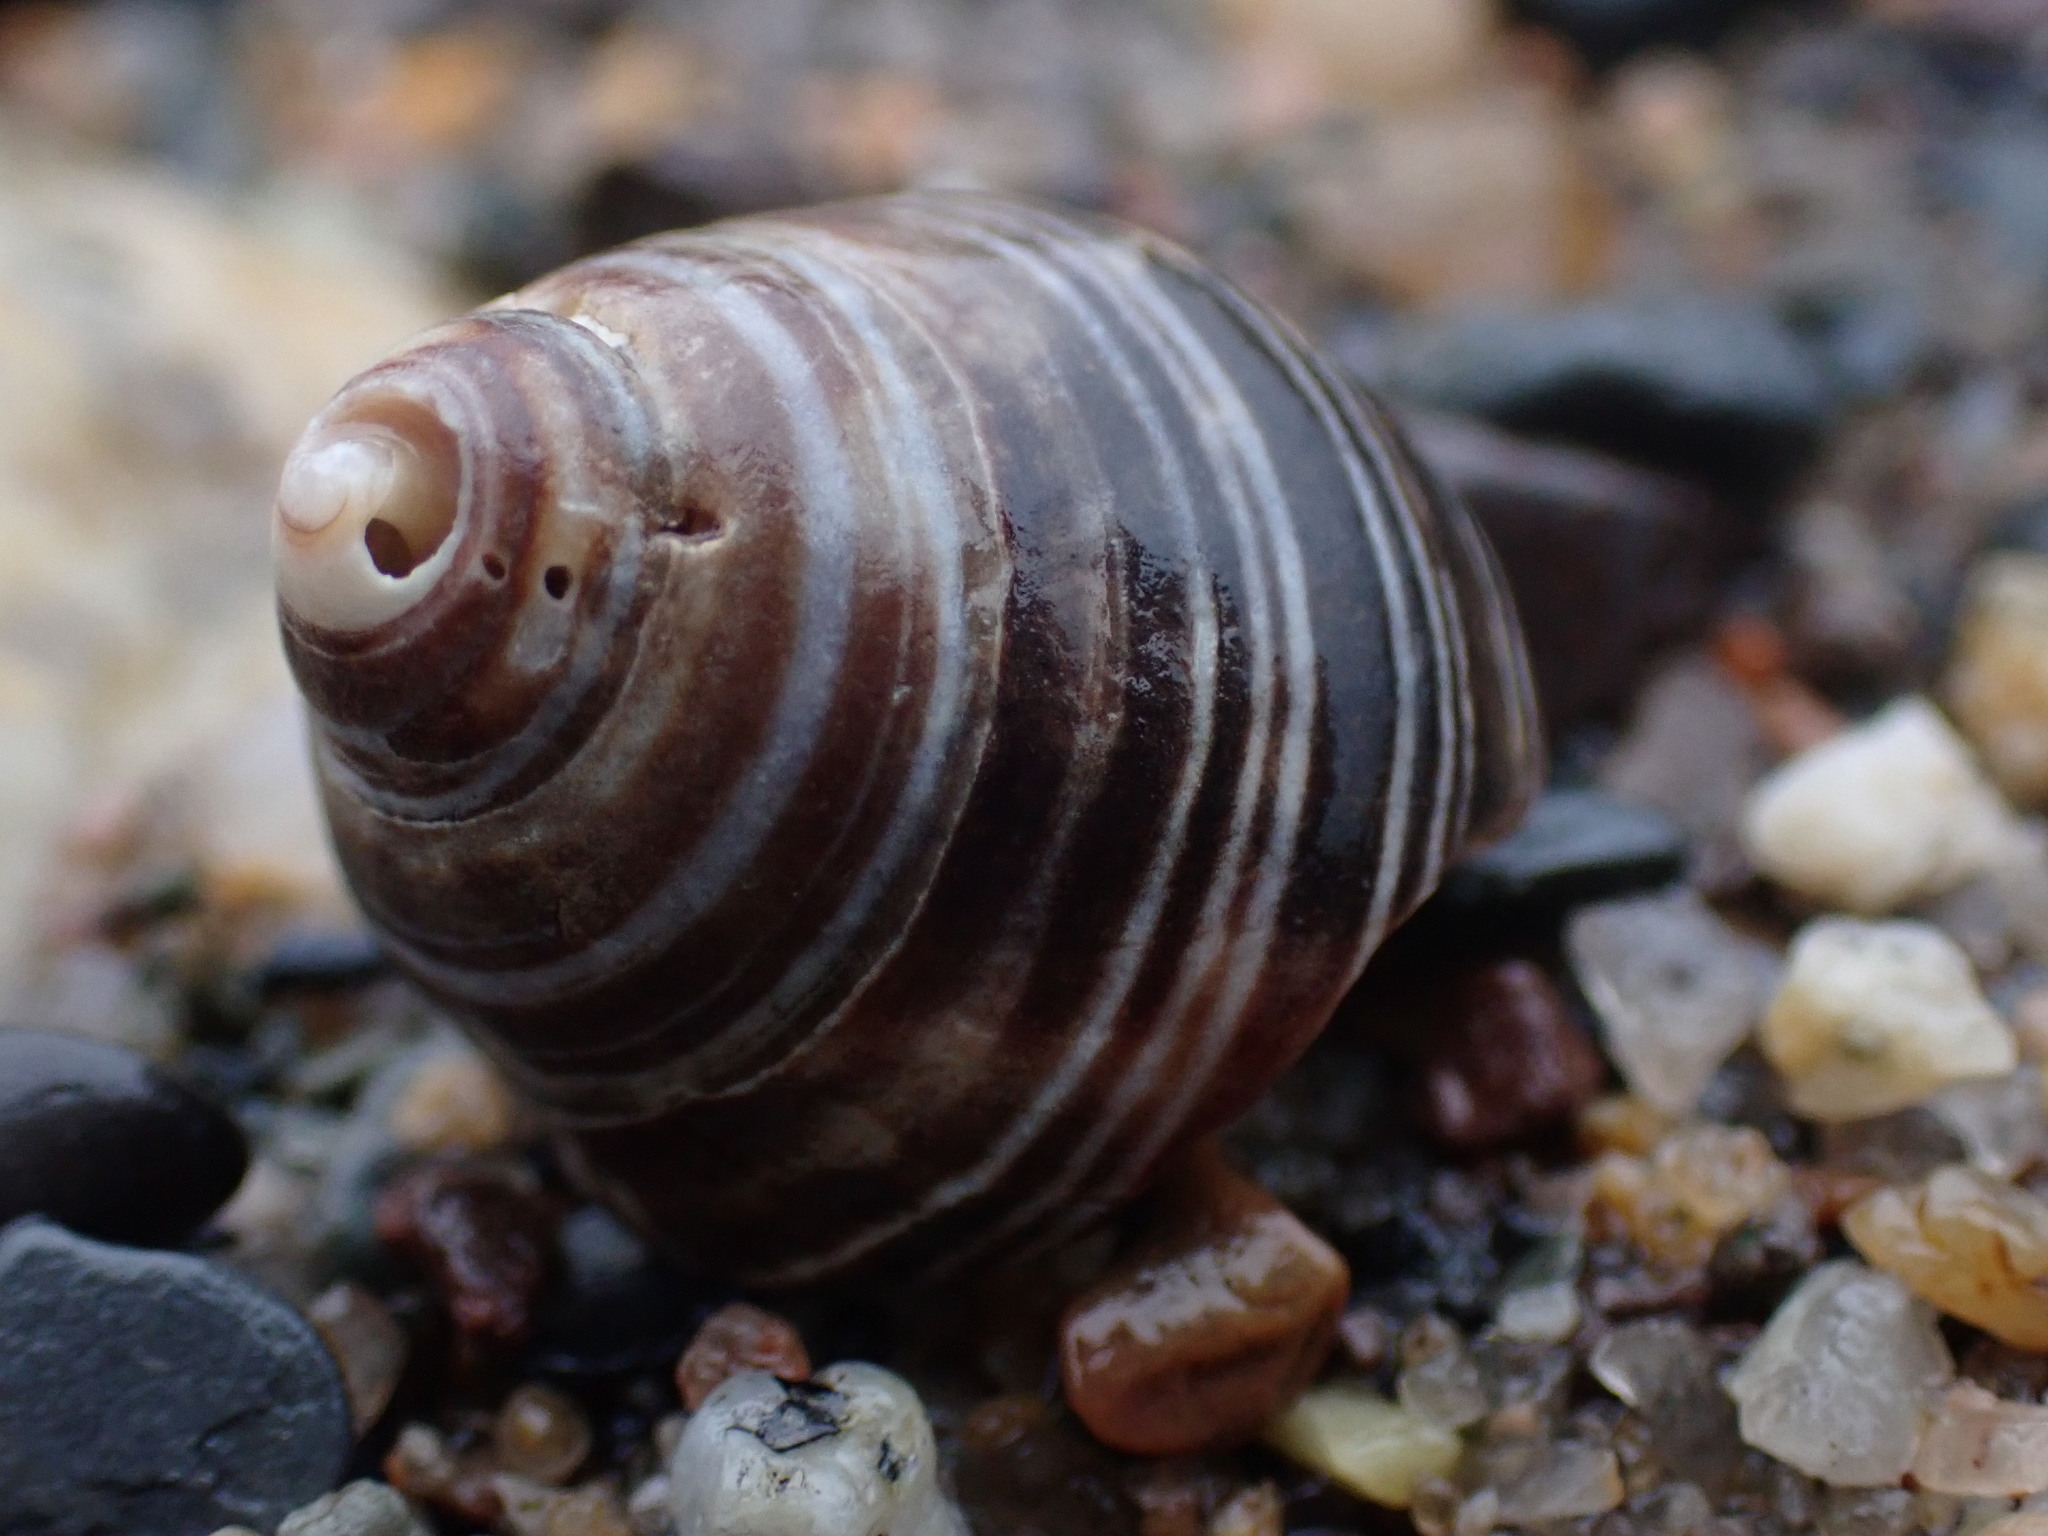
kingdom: Animalia
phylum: Mollusca
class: Gastropoda
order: Littorinimorpha
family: Littorinidae
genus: Littorina
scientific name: Littorina littorea
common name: Common periwinkle
